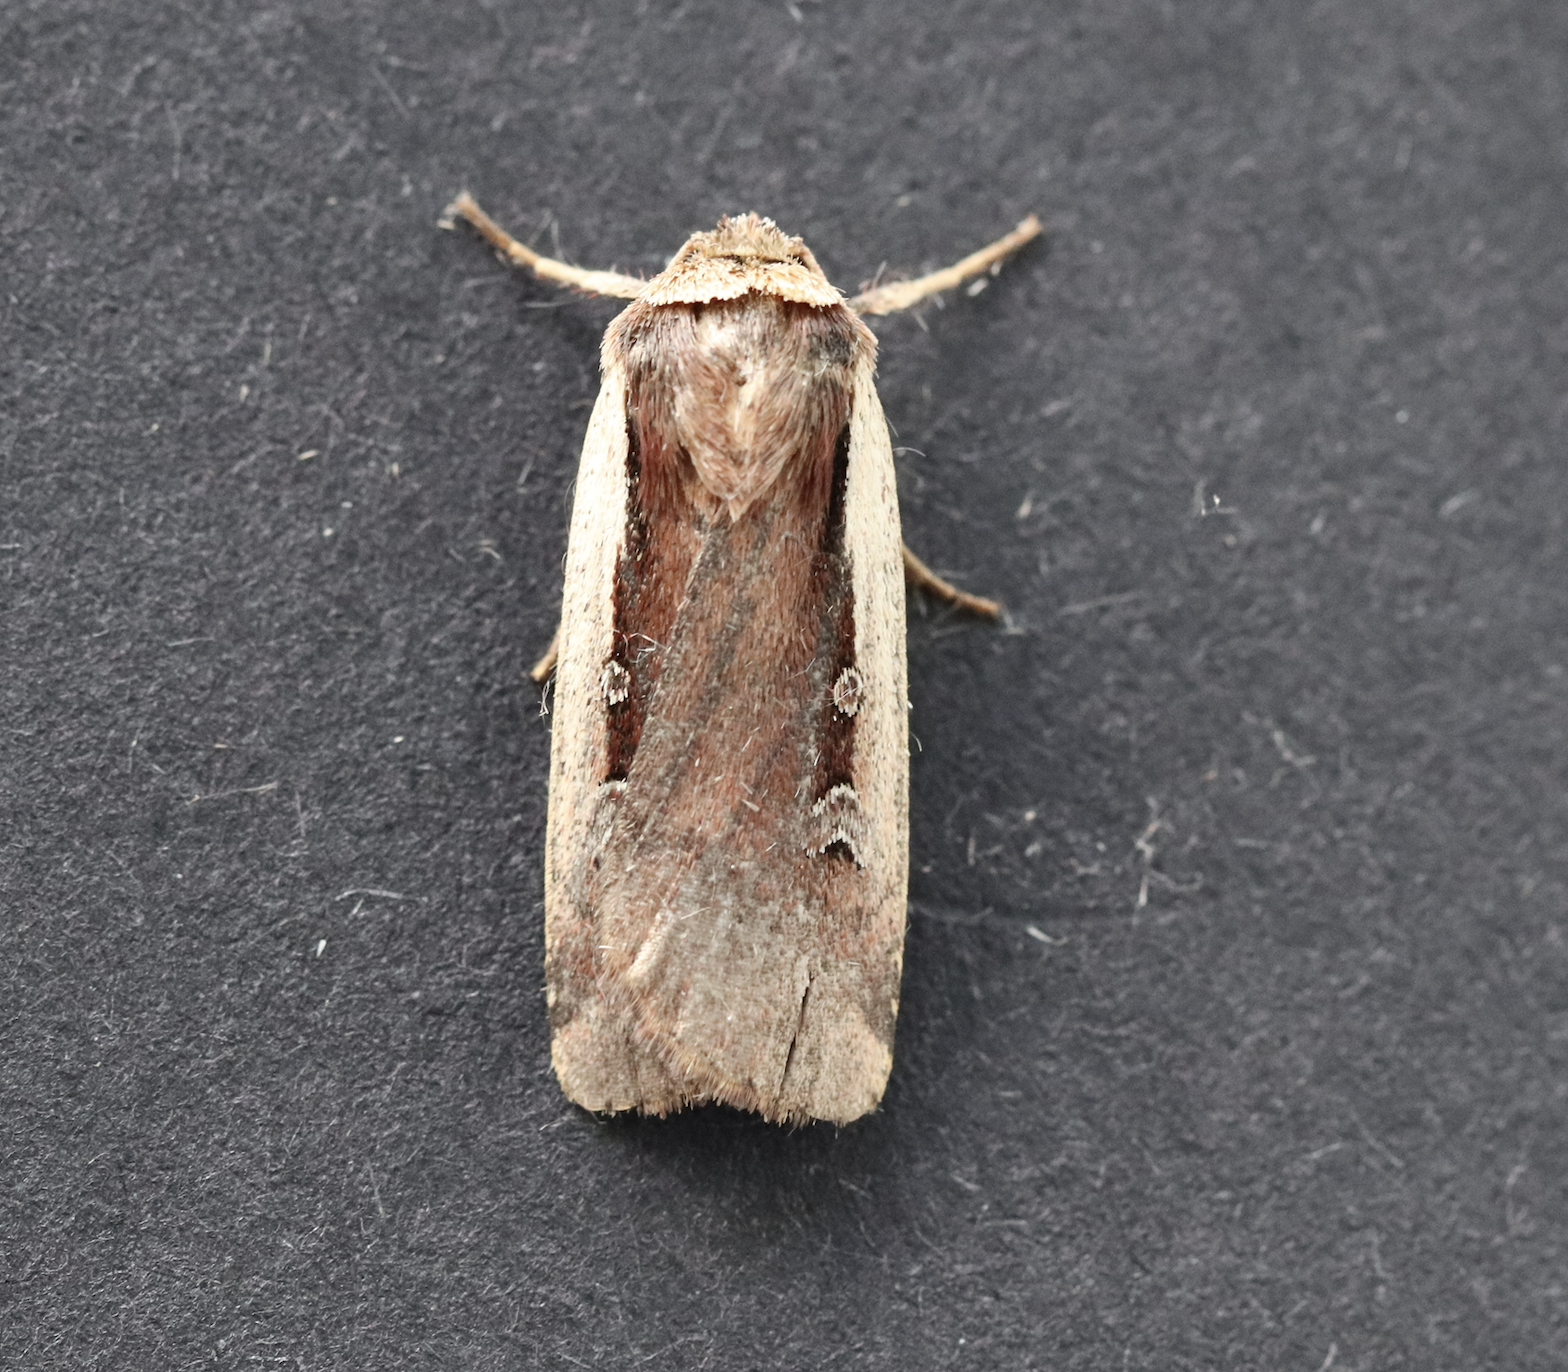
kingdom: Animalia
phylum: Arthropoda
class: Insecta
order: Lepidoptera
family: Noctuidae
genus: Ochropleura
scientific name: Ochropleura plecta
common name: Flame shoulder
